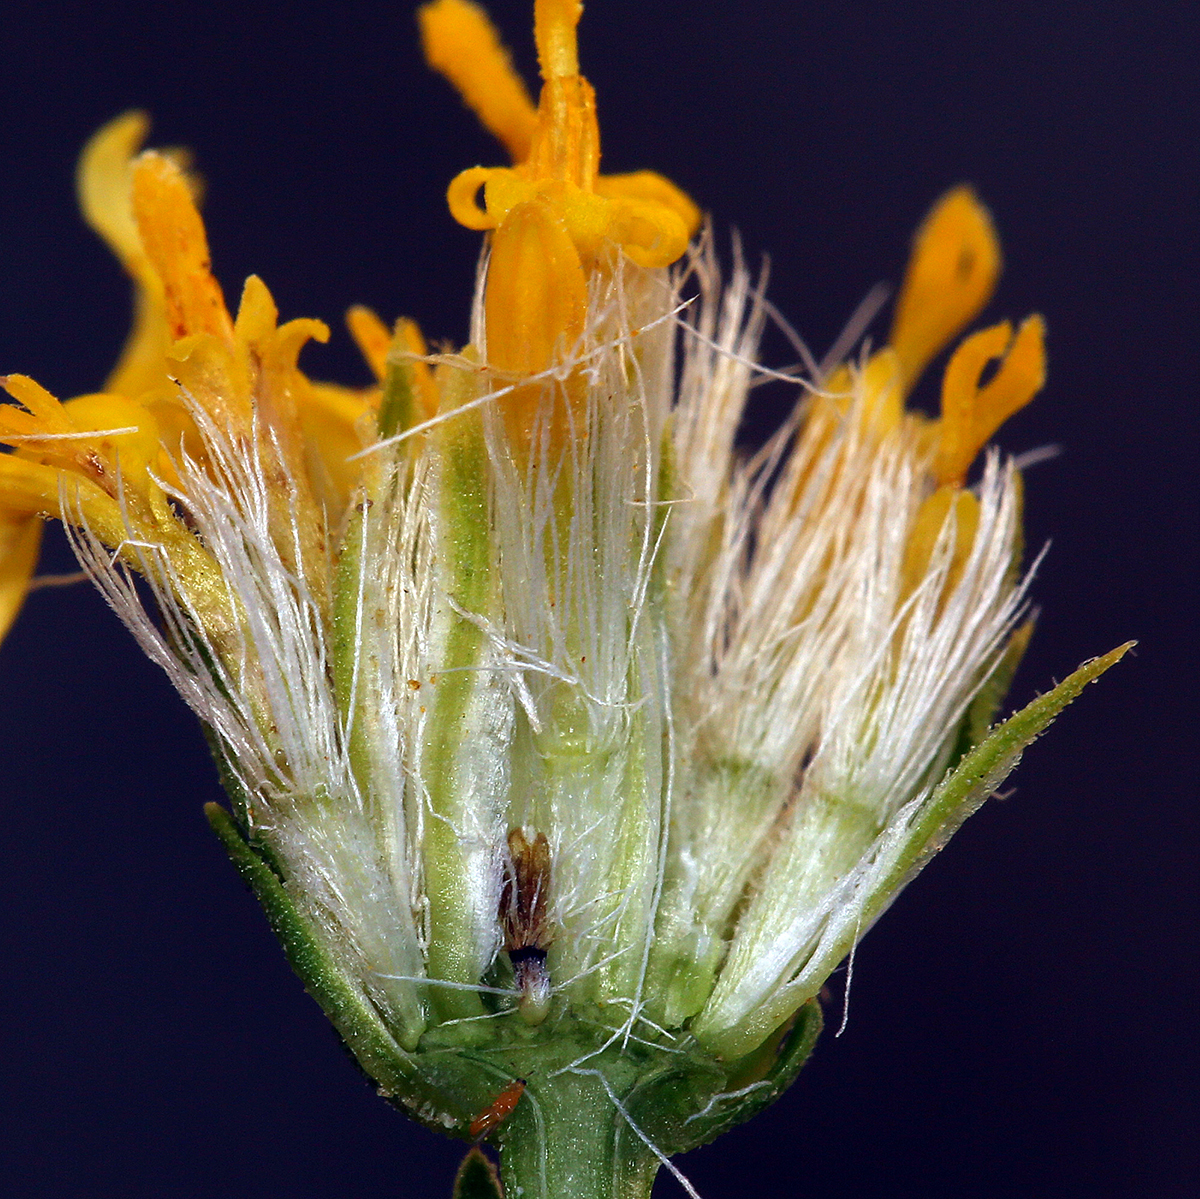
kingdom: Plantae
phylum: Tracheophyta
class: Magnoliopsida
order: Asterales
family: Asteraceae
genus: Ericameria
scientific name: Ericameria linearifolia
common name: Interior goldenbush
